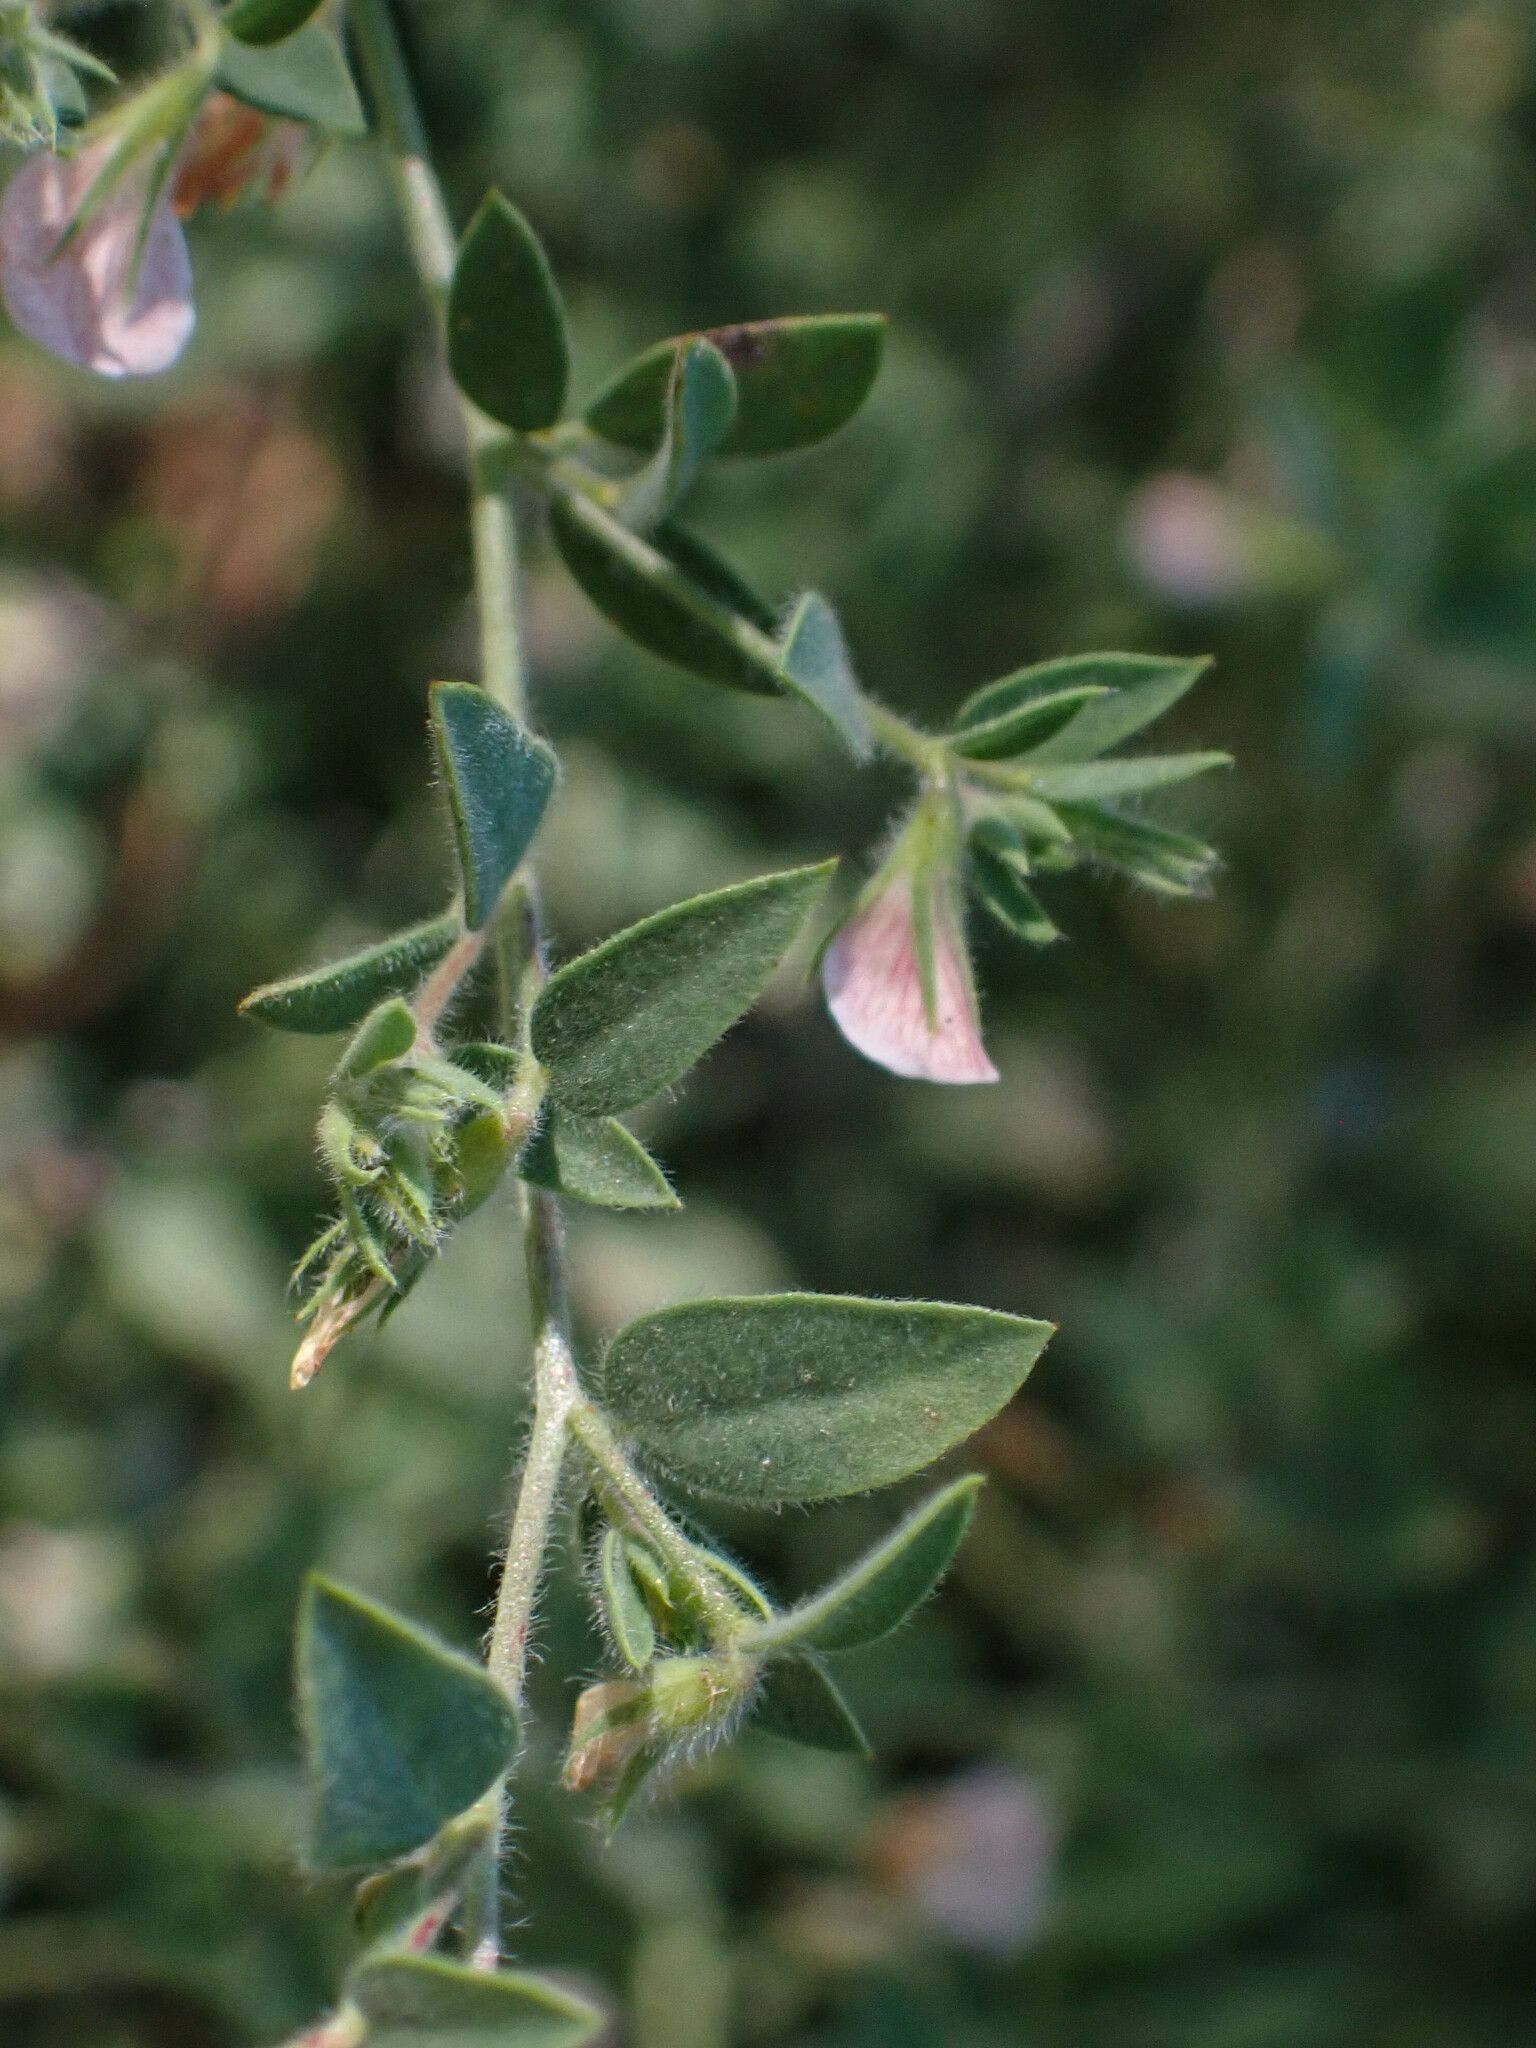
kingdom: Plantae
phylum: Tracheophyta
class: Magnoliopsida
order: Fabales
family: Fabaceae
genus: Acmispon
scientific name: Acmispon americanus
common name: American bird's-foot trefoil
